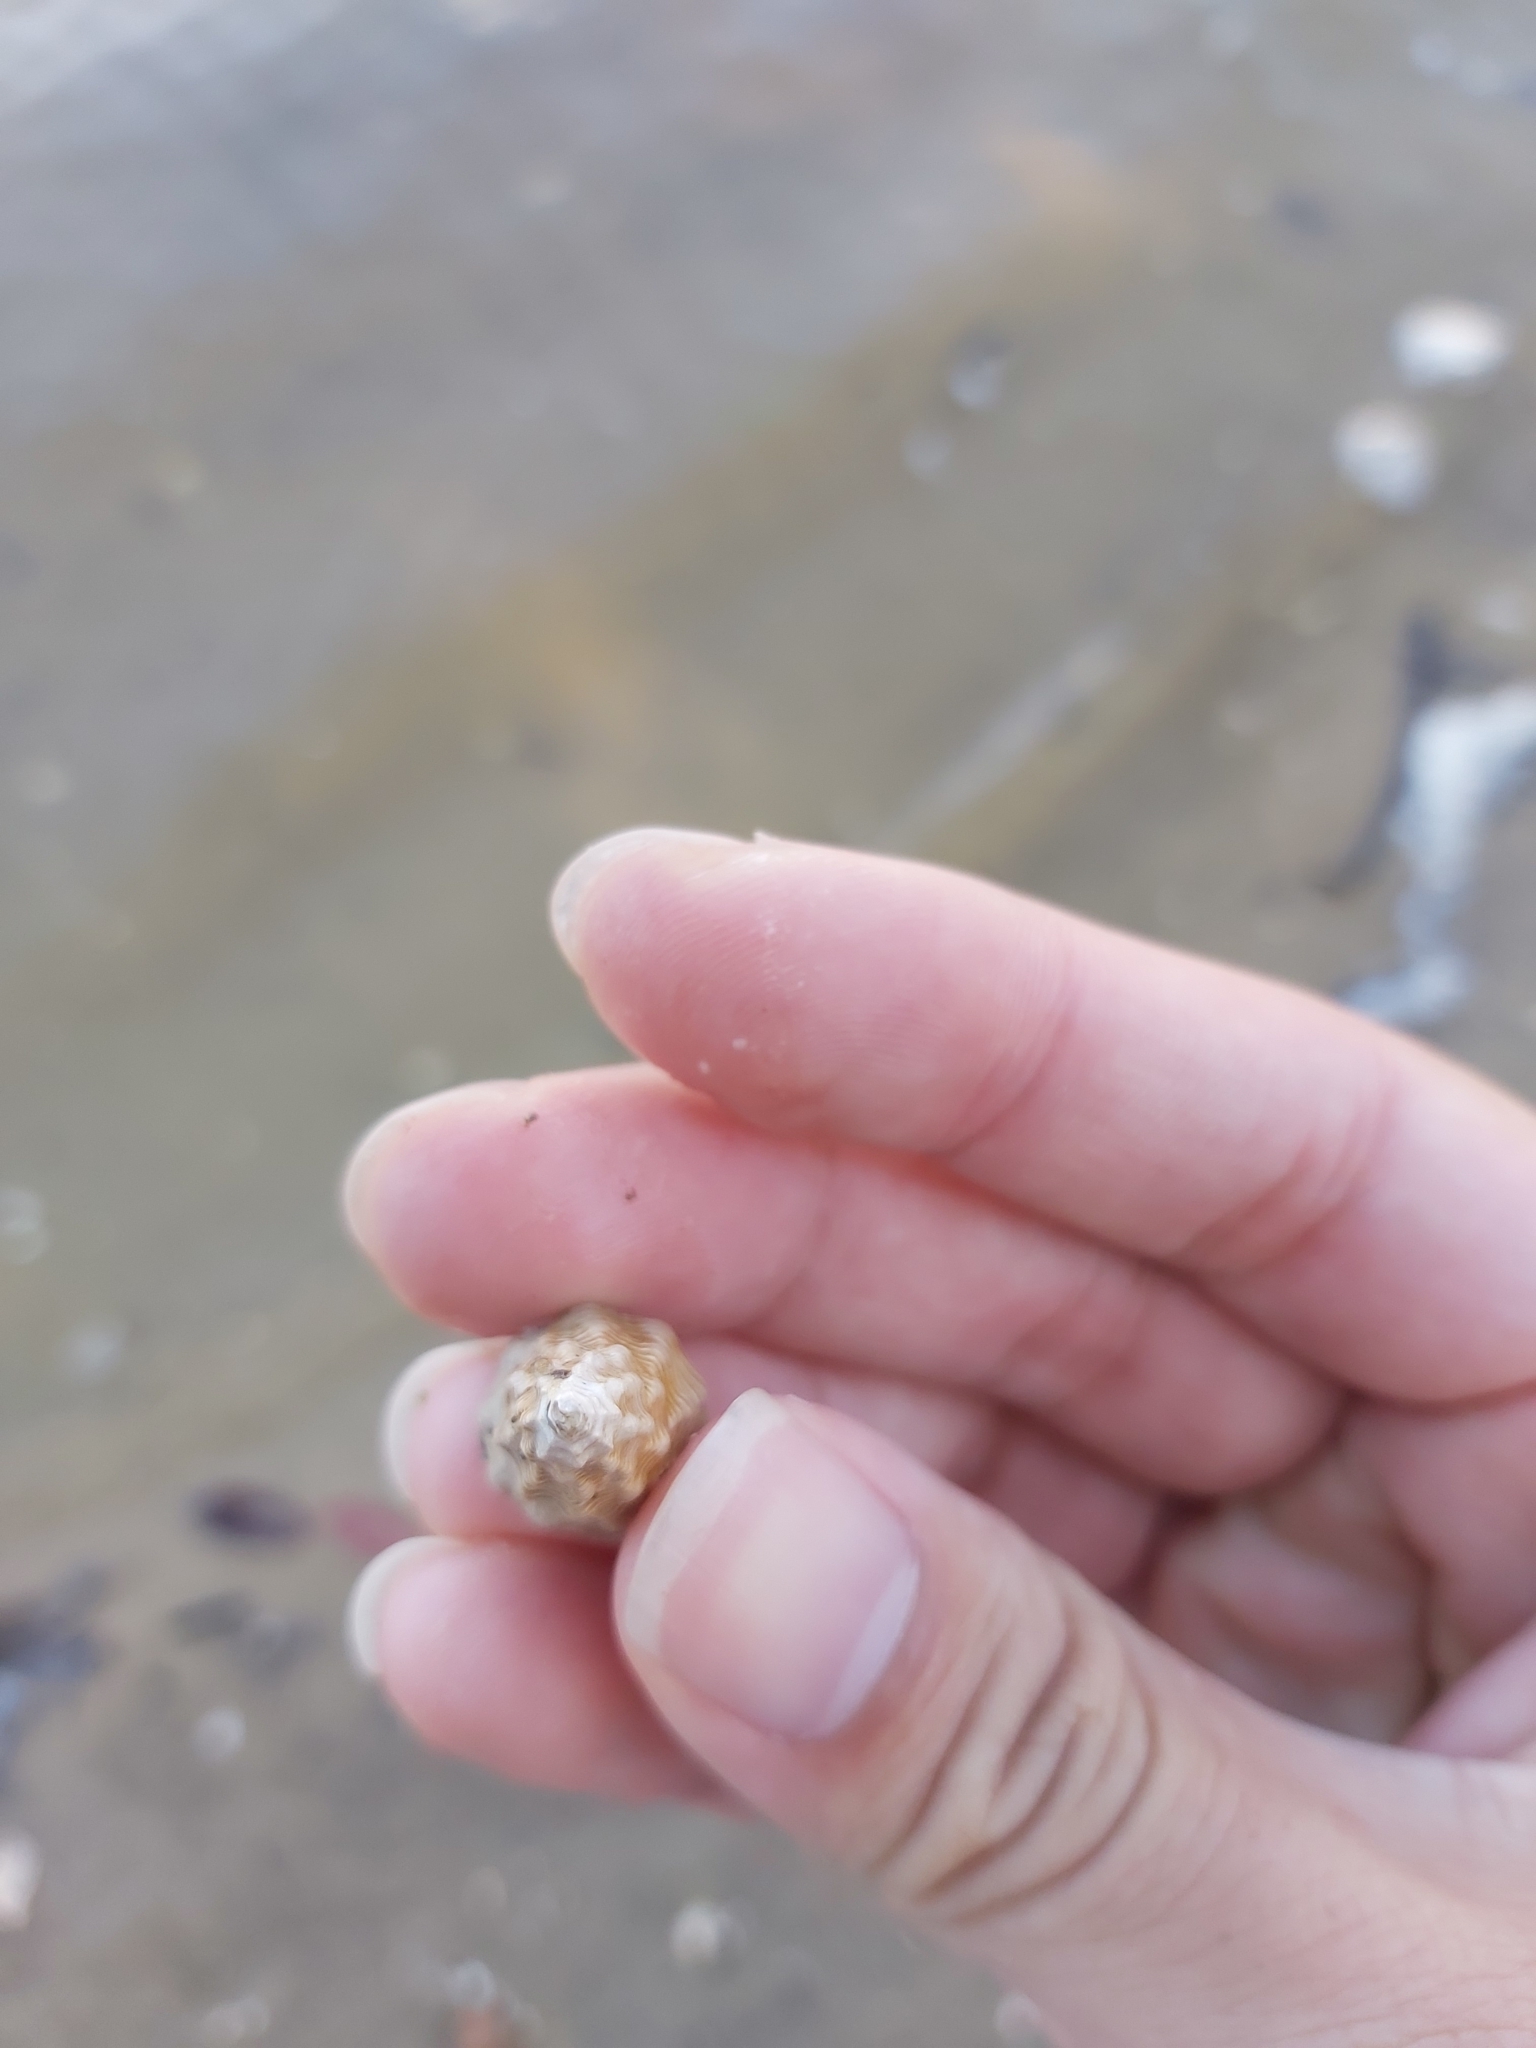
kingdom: Animalia
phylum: Mollusca
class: Gastropoda
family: Batillariidae
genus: Pyrazus
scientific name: Pyrazus ebeninus
